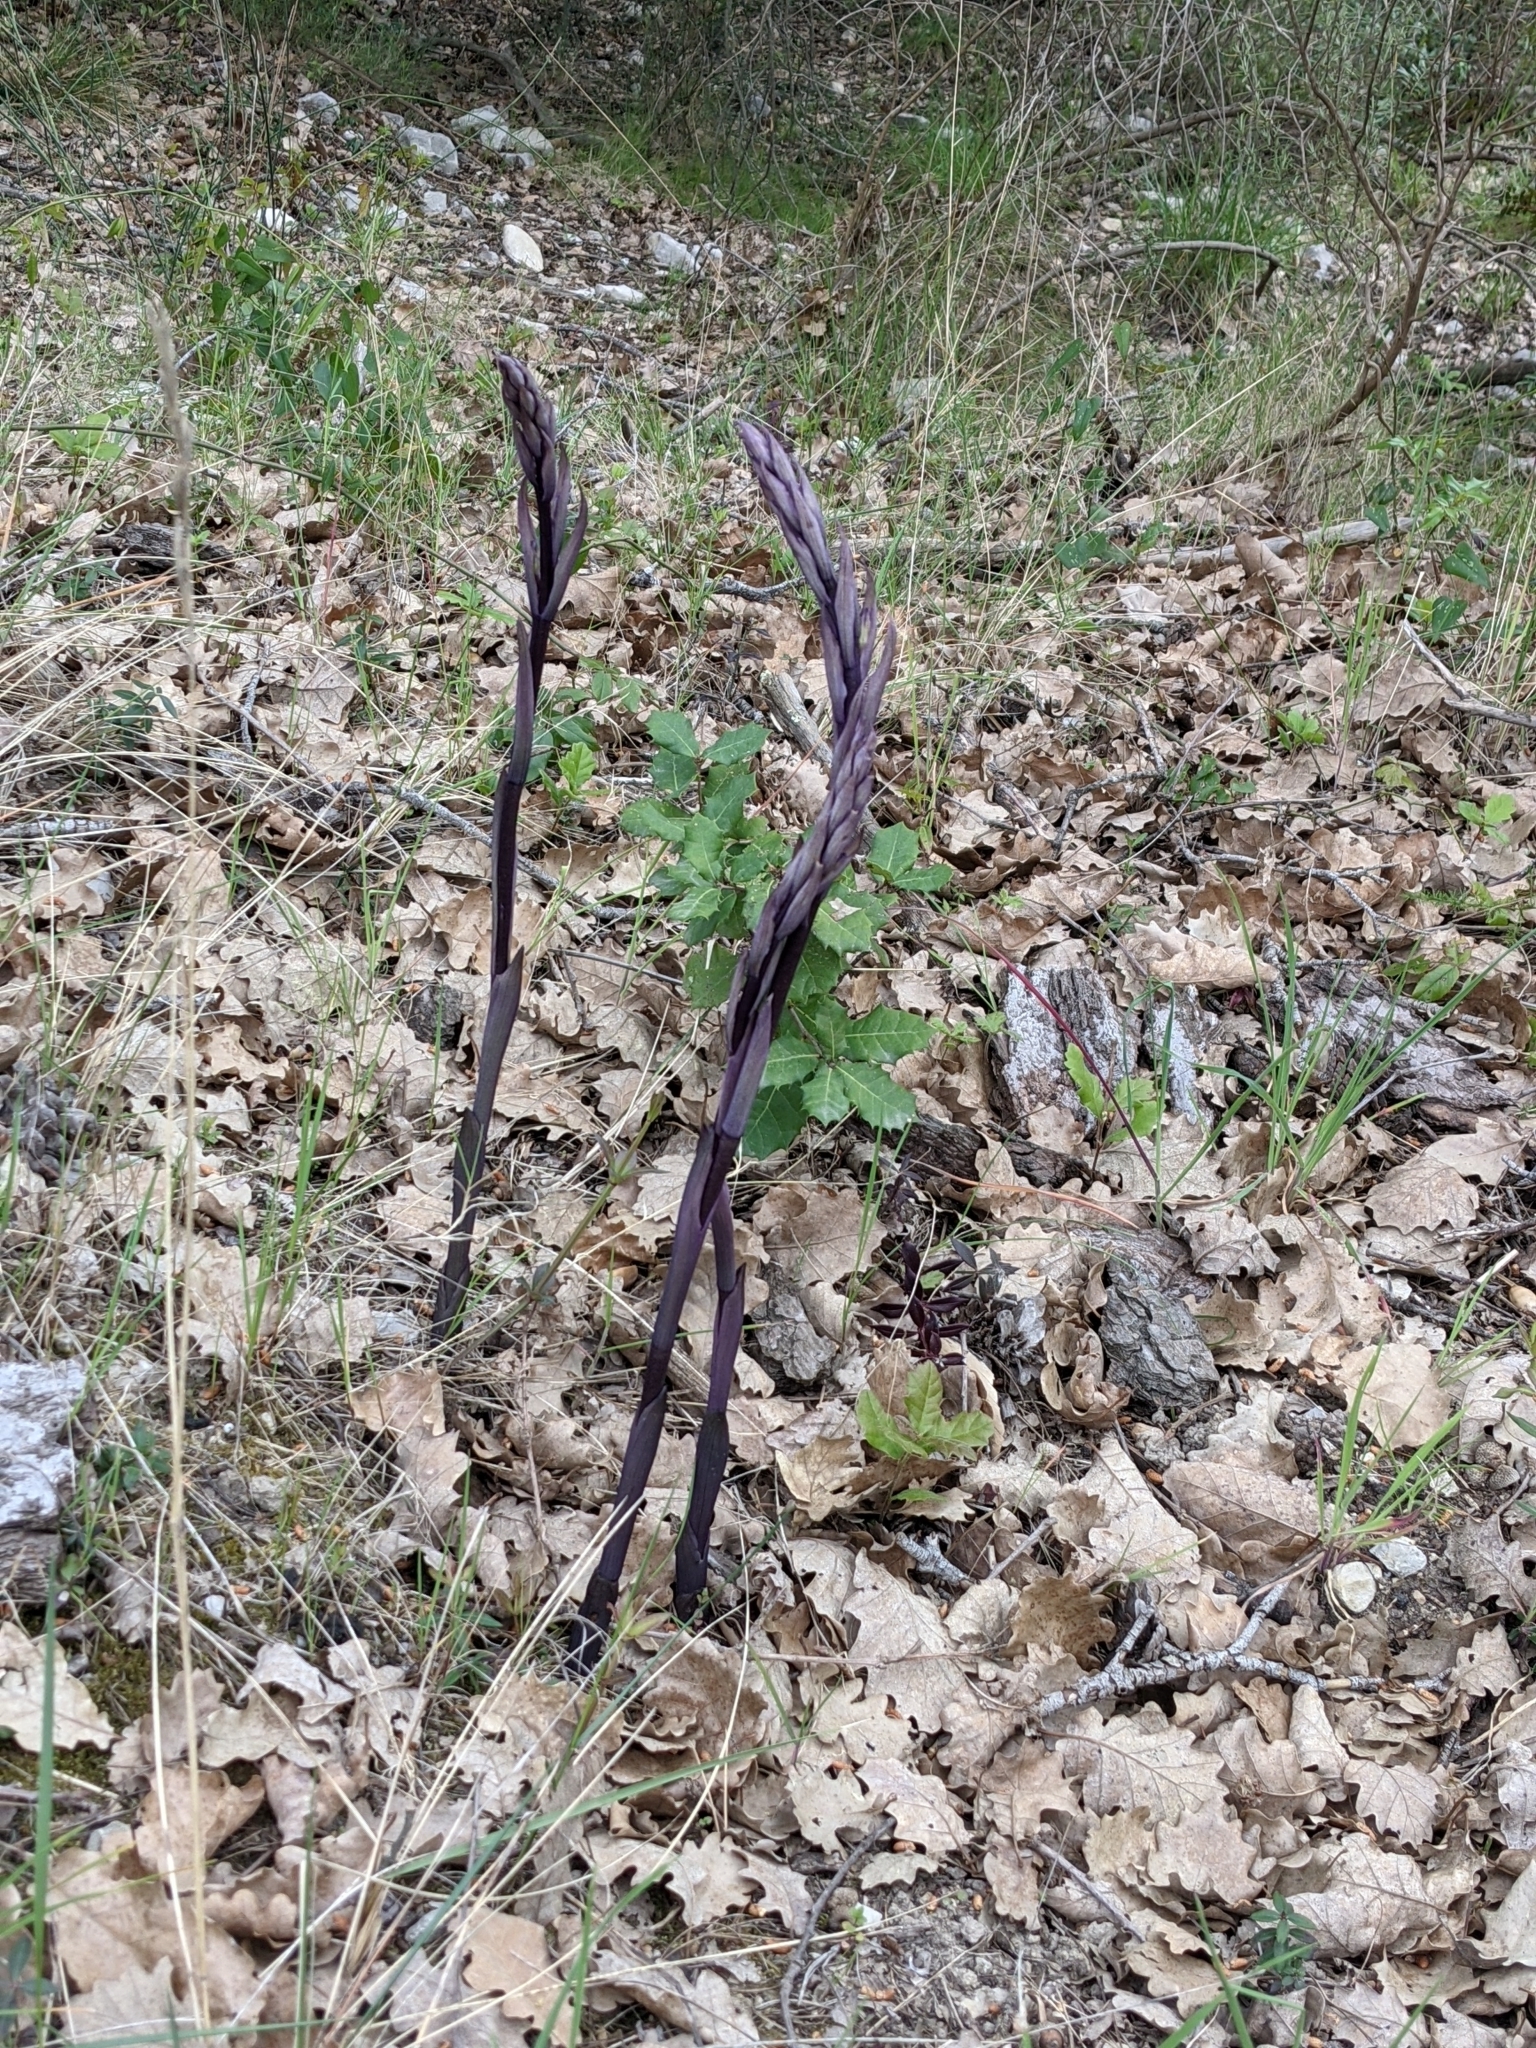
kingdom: Plantae
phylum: Tracheophyta
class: Liliopsida
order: Asparagales
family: Orchidaceae
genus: Limodorum
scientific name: Limodorum abortivum
